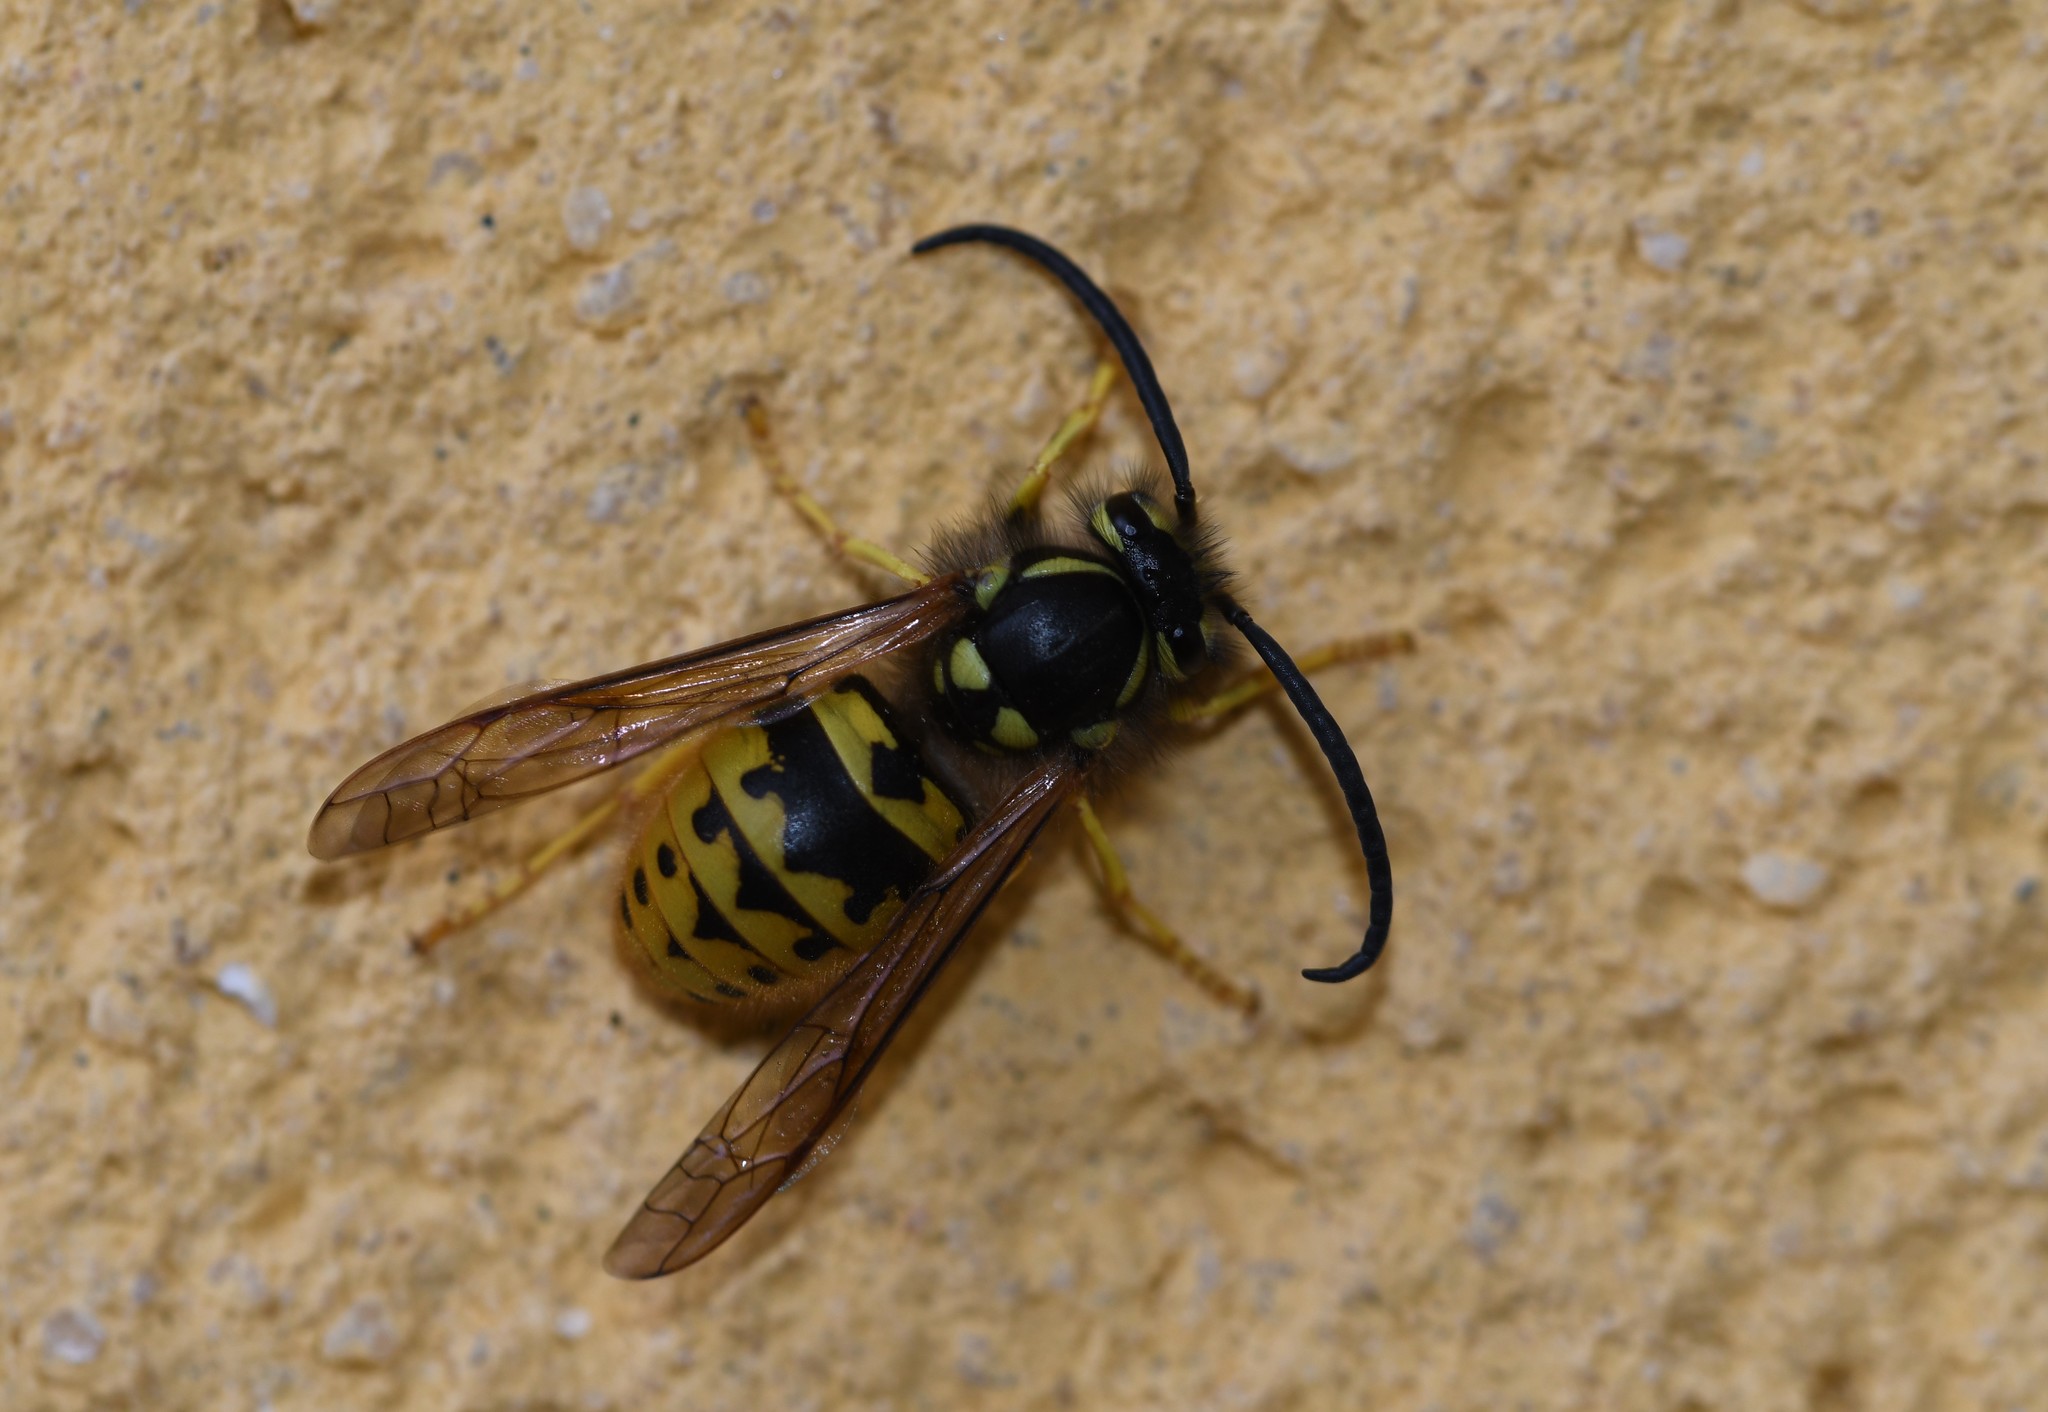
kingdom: Animalia
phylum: Arthropoda
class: Insecta
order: Hymenoptera
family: Vespidae
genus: Vespula
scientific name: Vespula germanica
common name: German wasp
